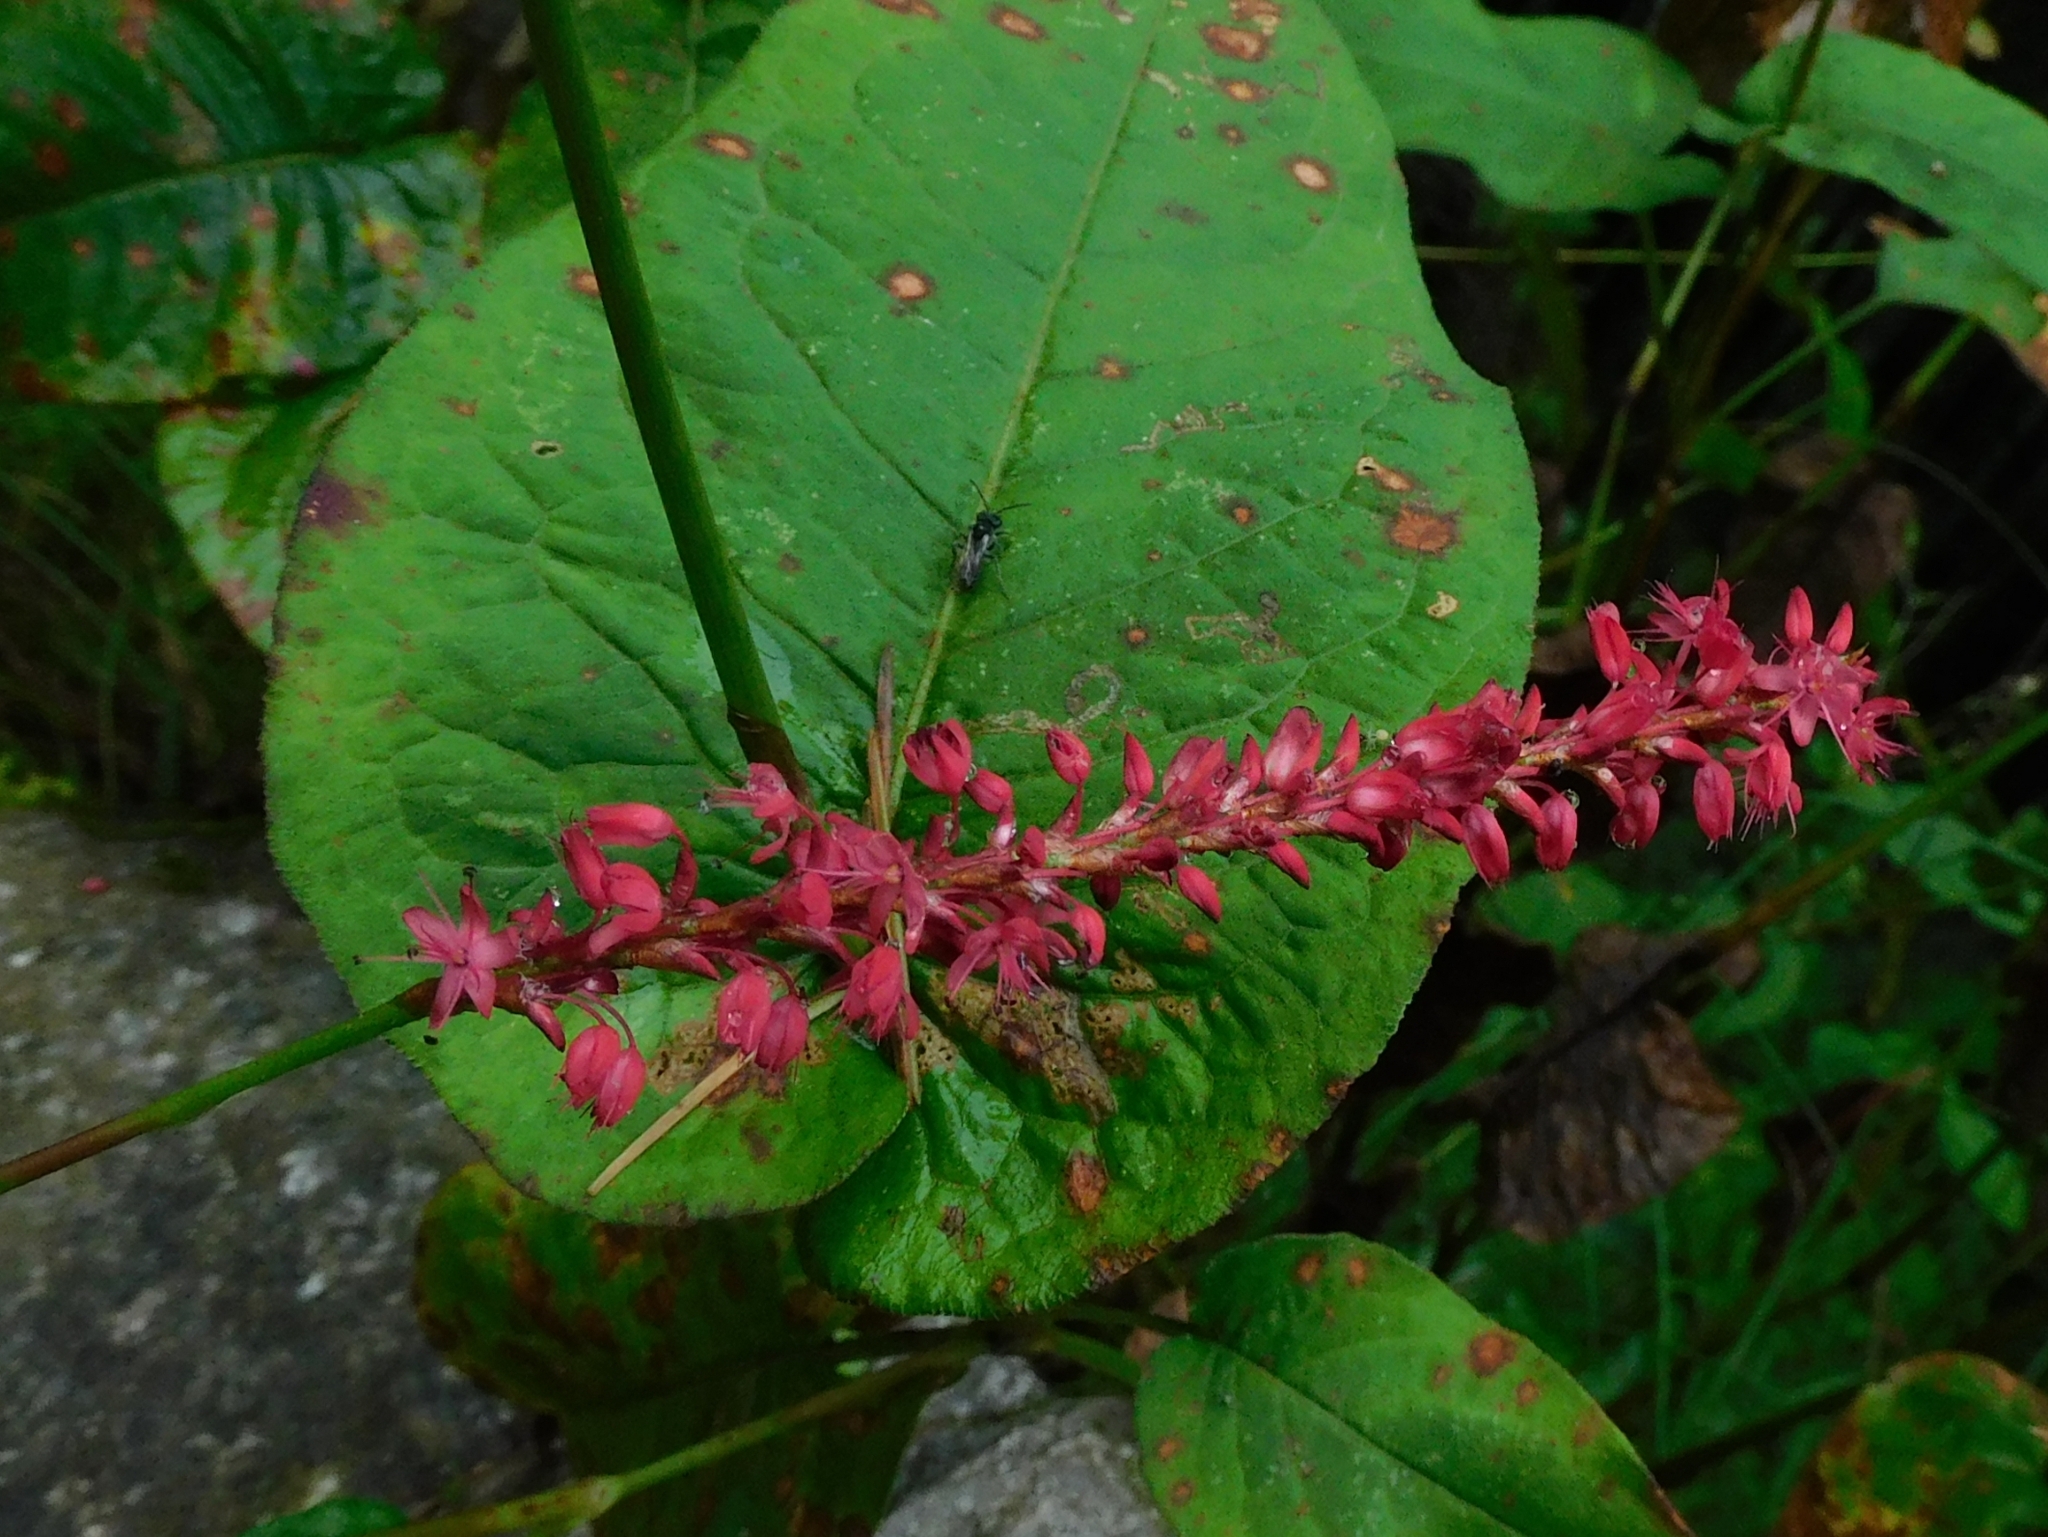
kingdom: Plantae
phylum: Tracheophyta
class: Magnoliopsida
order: Caryophyllales
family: Polygonaceae
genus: Bistorta
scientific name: Bistorta amplexicaulis
